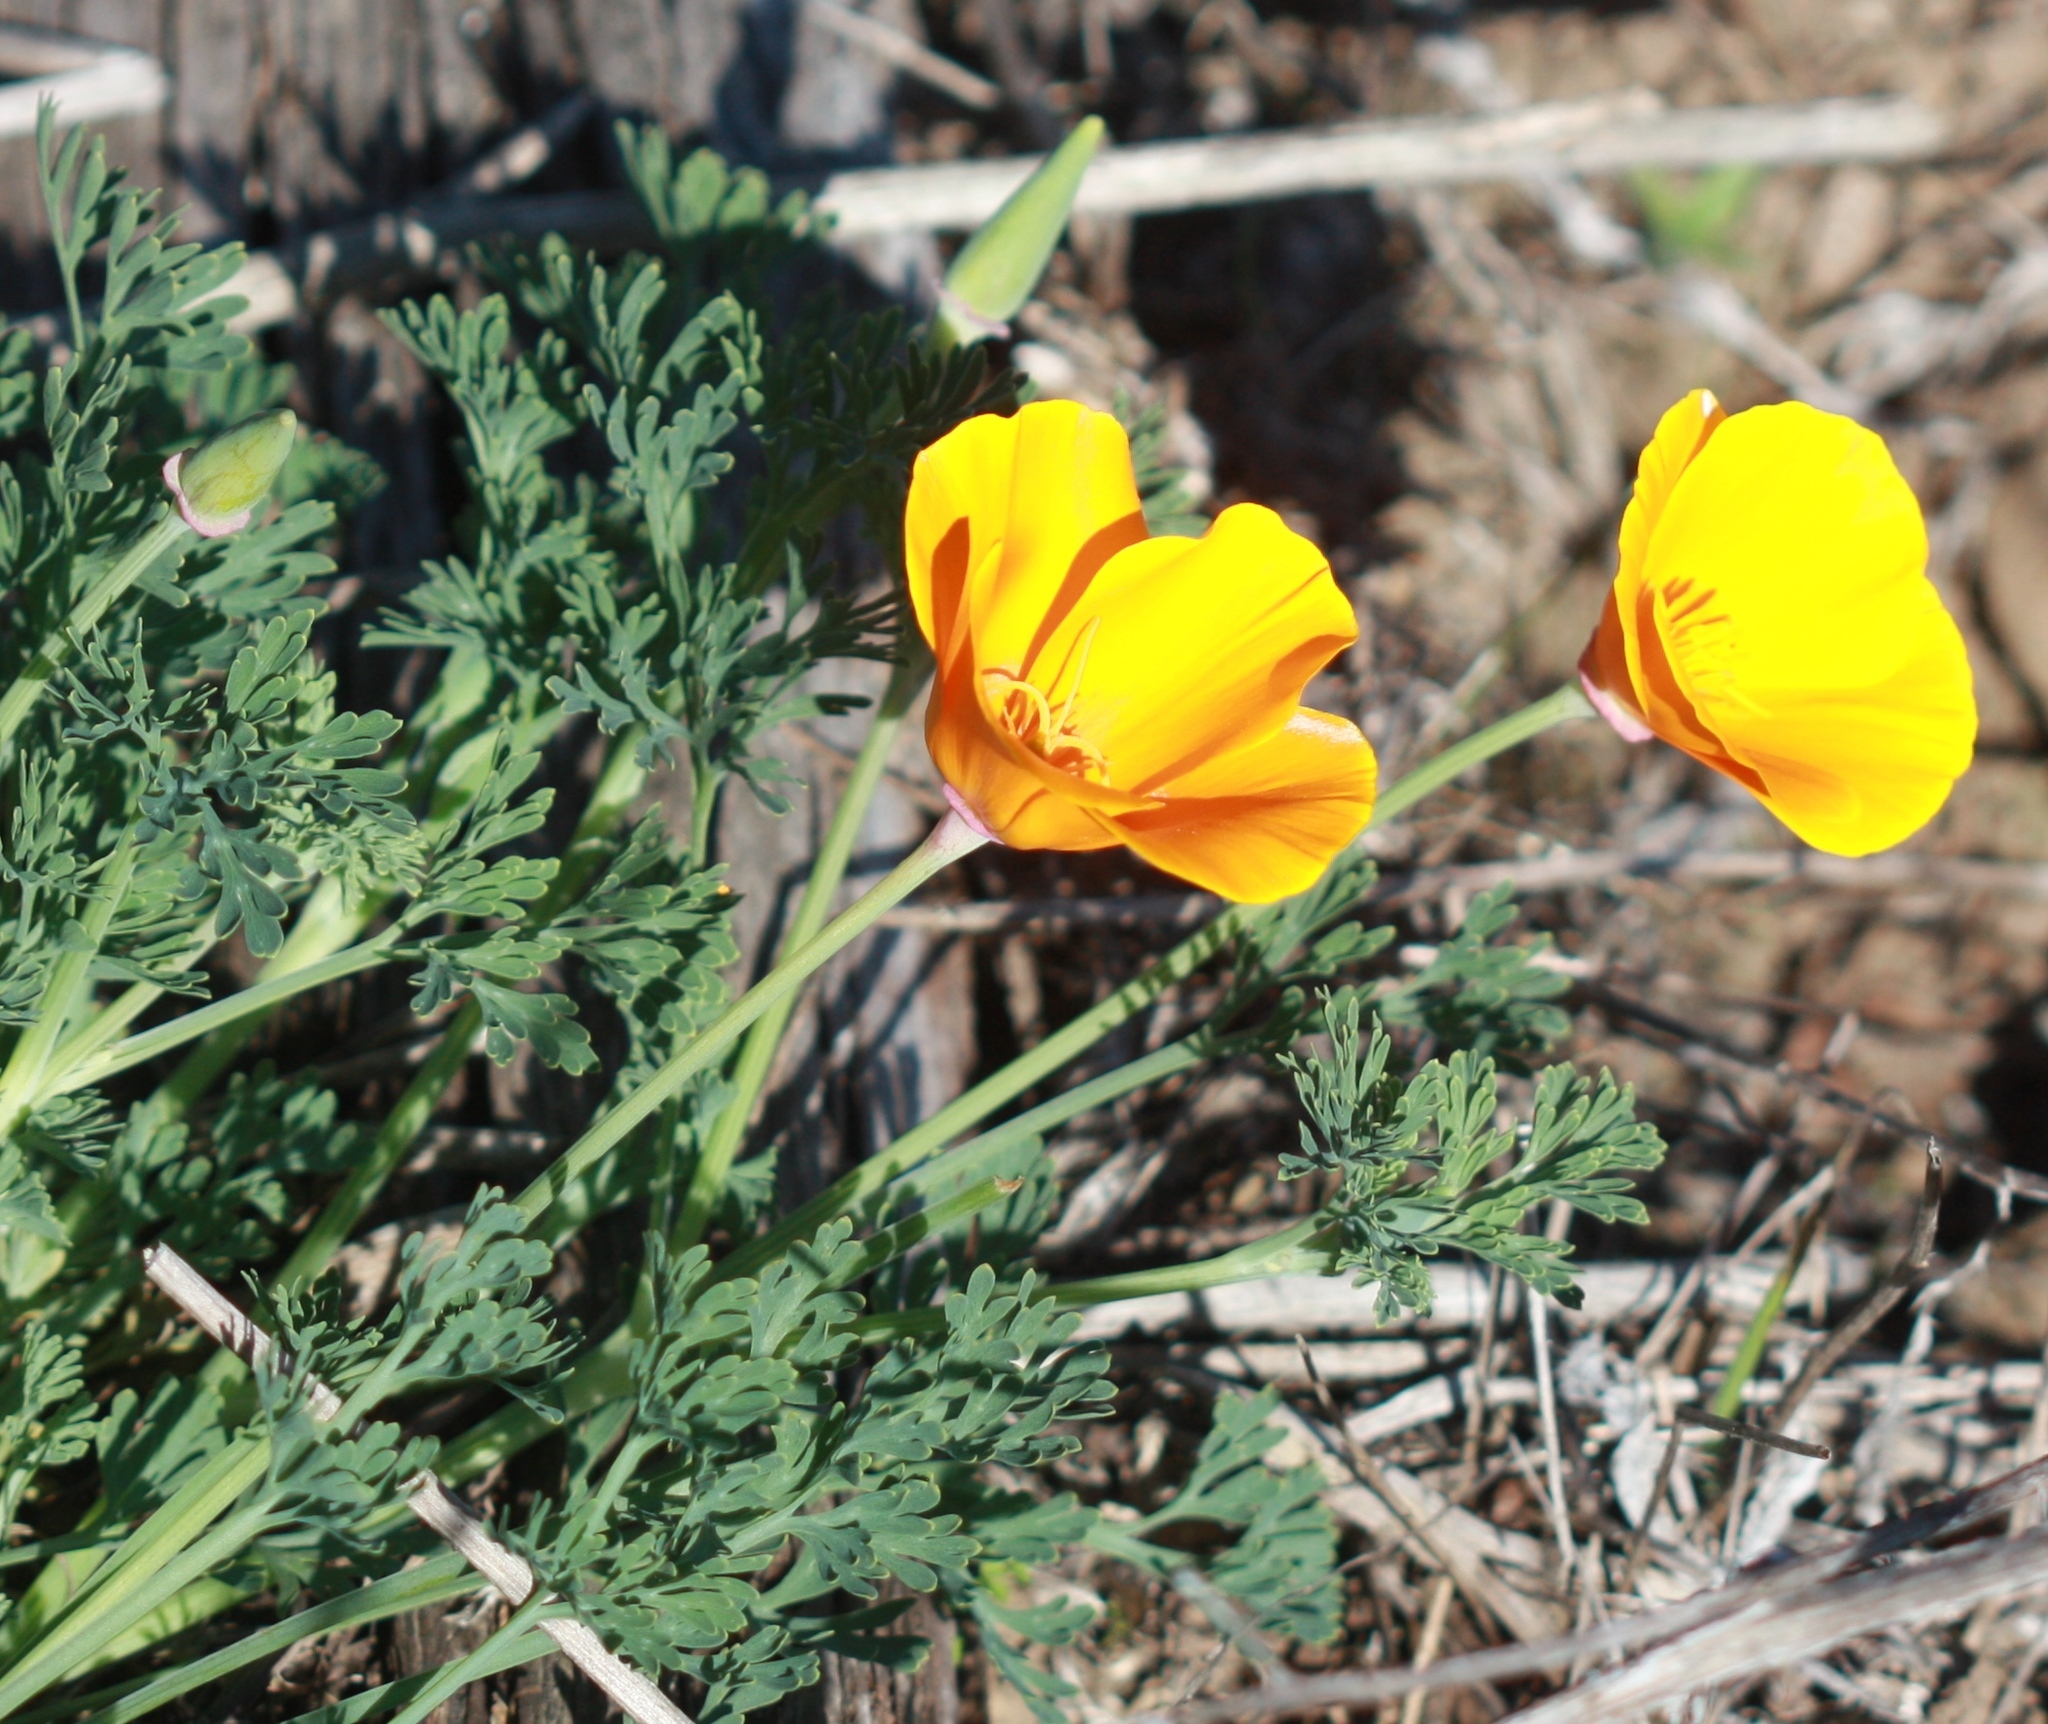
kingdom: Plantae
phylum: Tracheophyta
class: Magnoliopsida
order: Ranunculales
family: Papaveraceae
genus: Eschscholzia
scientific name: Eschscholzia californica
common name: California poppy
